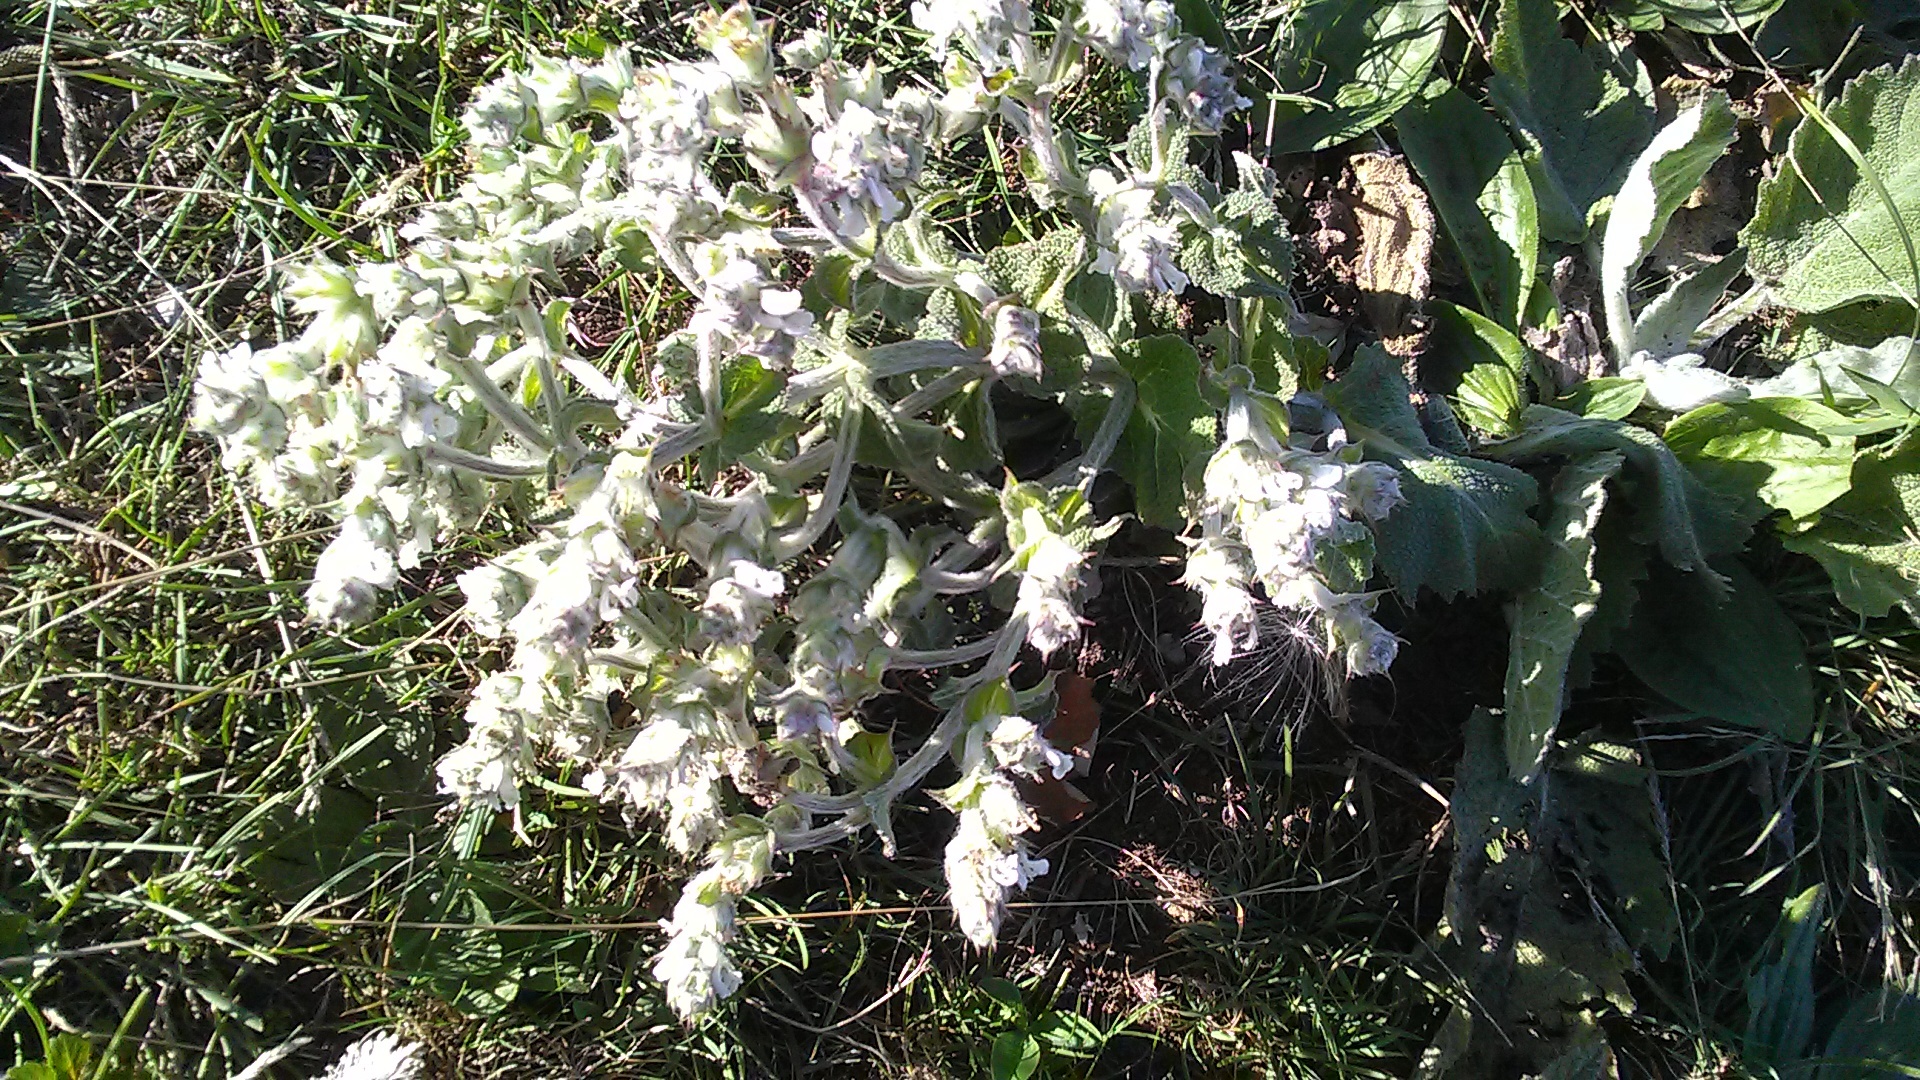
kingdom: Plantae
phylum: Tracheophyta
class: Magnoliopsida
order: Lamiales
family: Lamiaceae
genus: Salvia
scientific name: Salvia aethiopis
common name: Mediterranean sage
